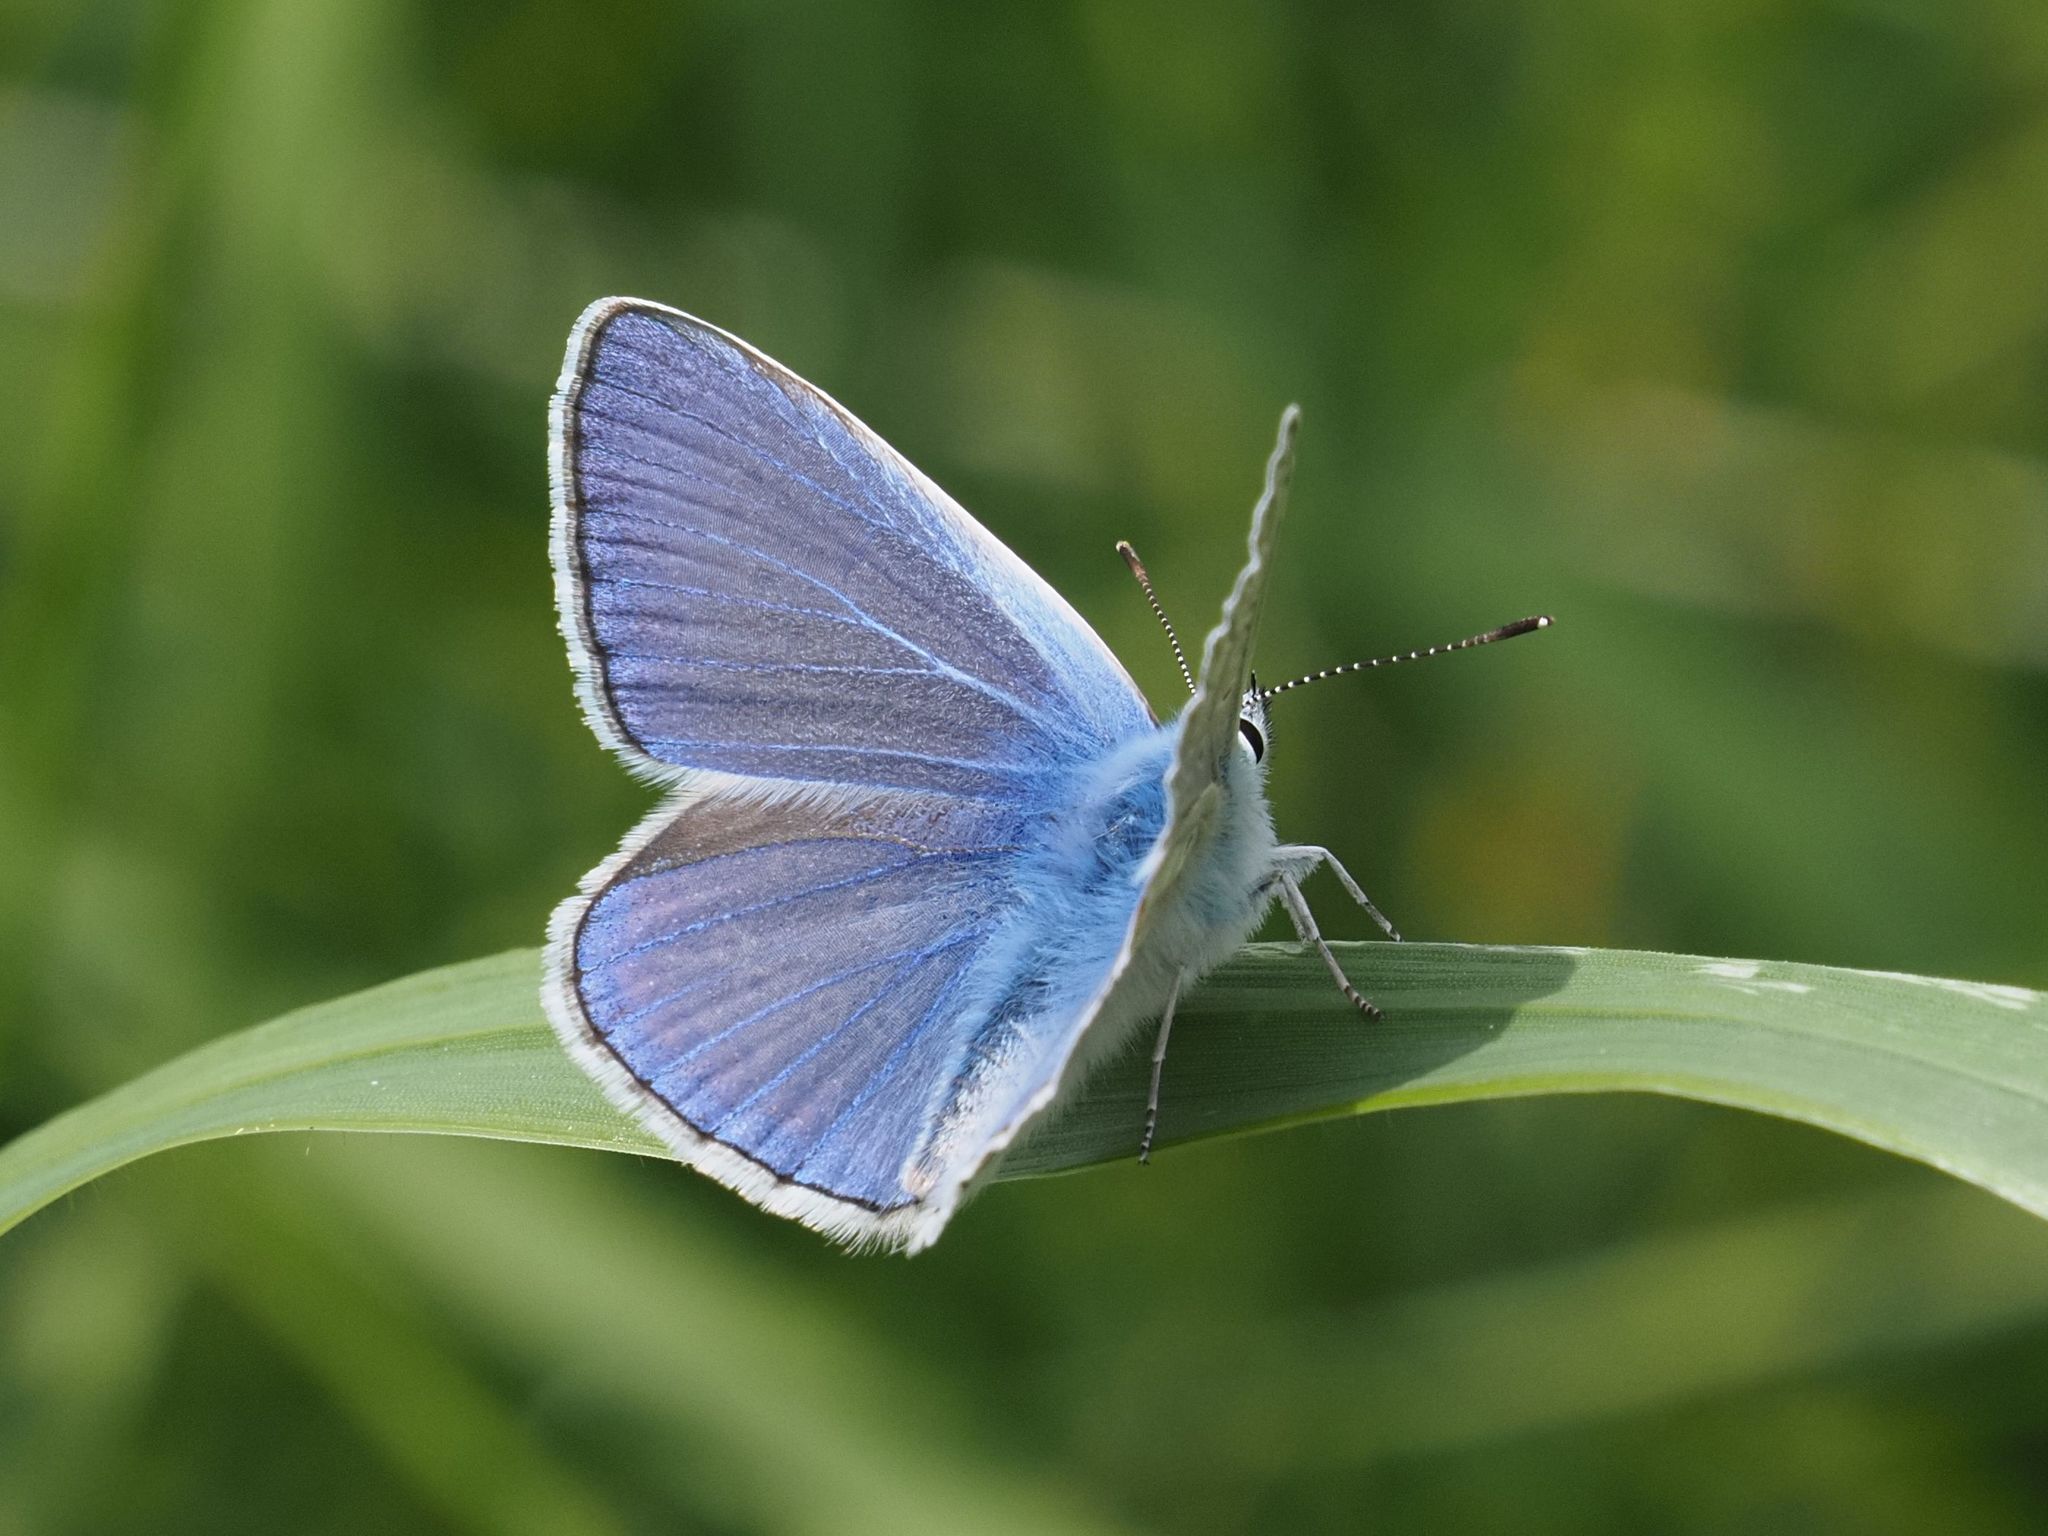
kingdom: Animalia
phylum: Arthropoda
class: Insecta
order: Lepidoptera
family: Lycaenidae
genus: Polyommatus
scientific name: Polyommatus icarus
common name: Common blue
